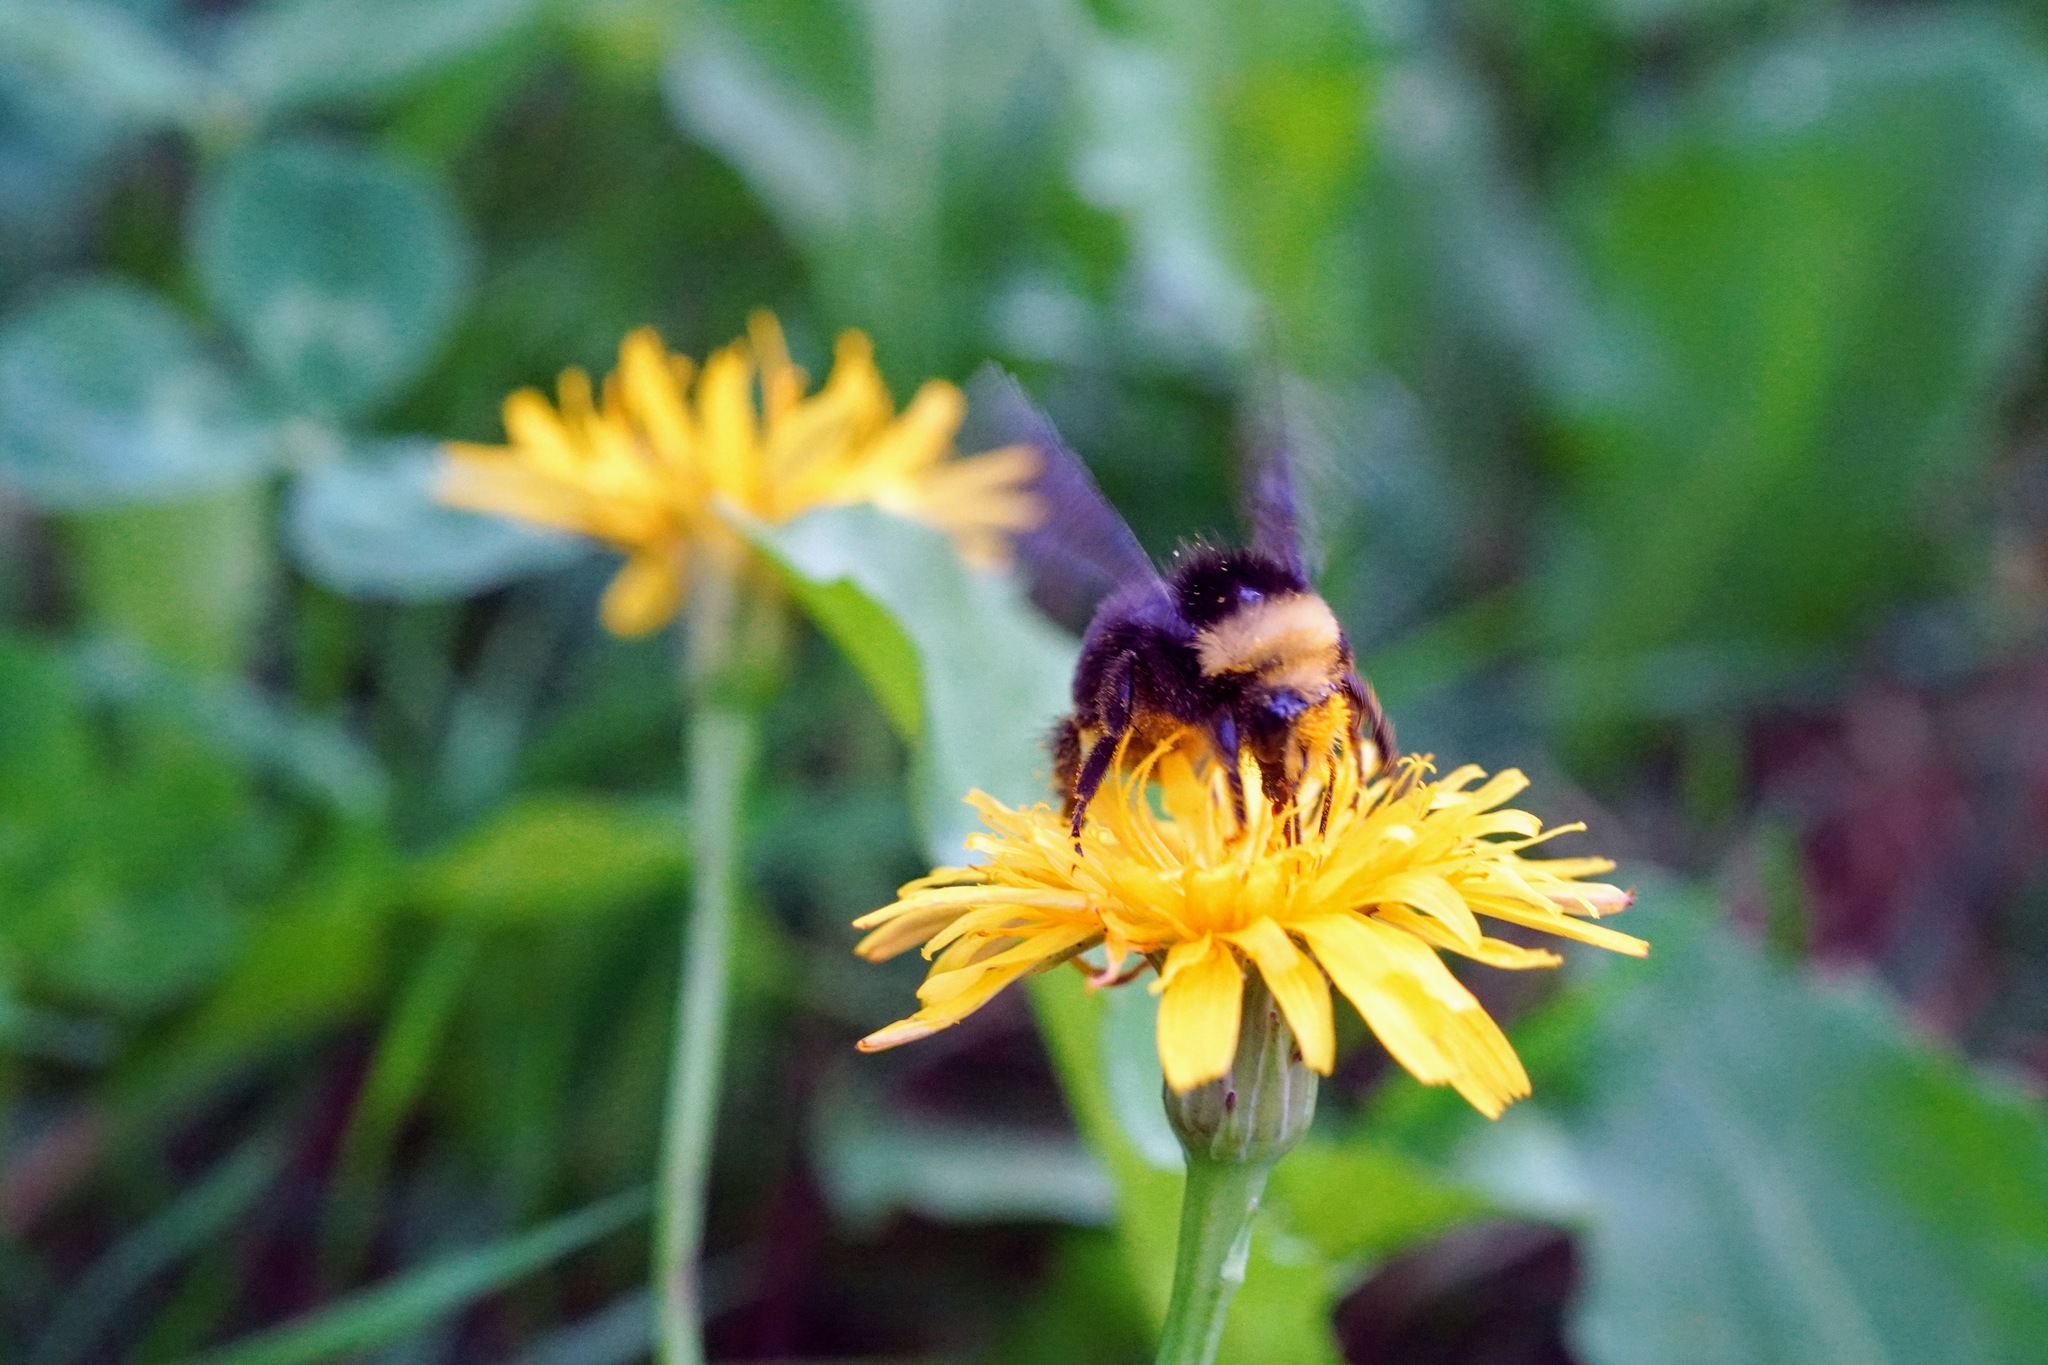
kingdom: Animalia
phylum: Arthropoda
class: Insecta
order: Hymenoptera
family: Apidae
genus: Bombus
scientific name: Bombus vosnesenskii
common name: Vosnesensky bumble bee
